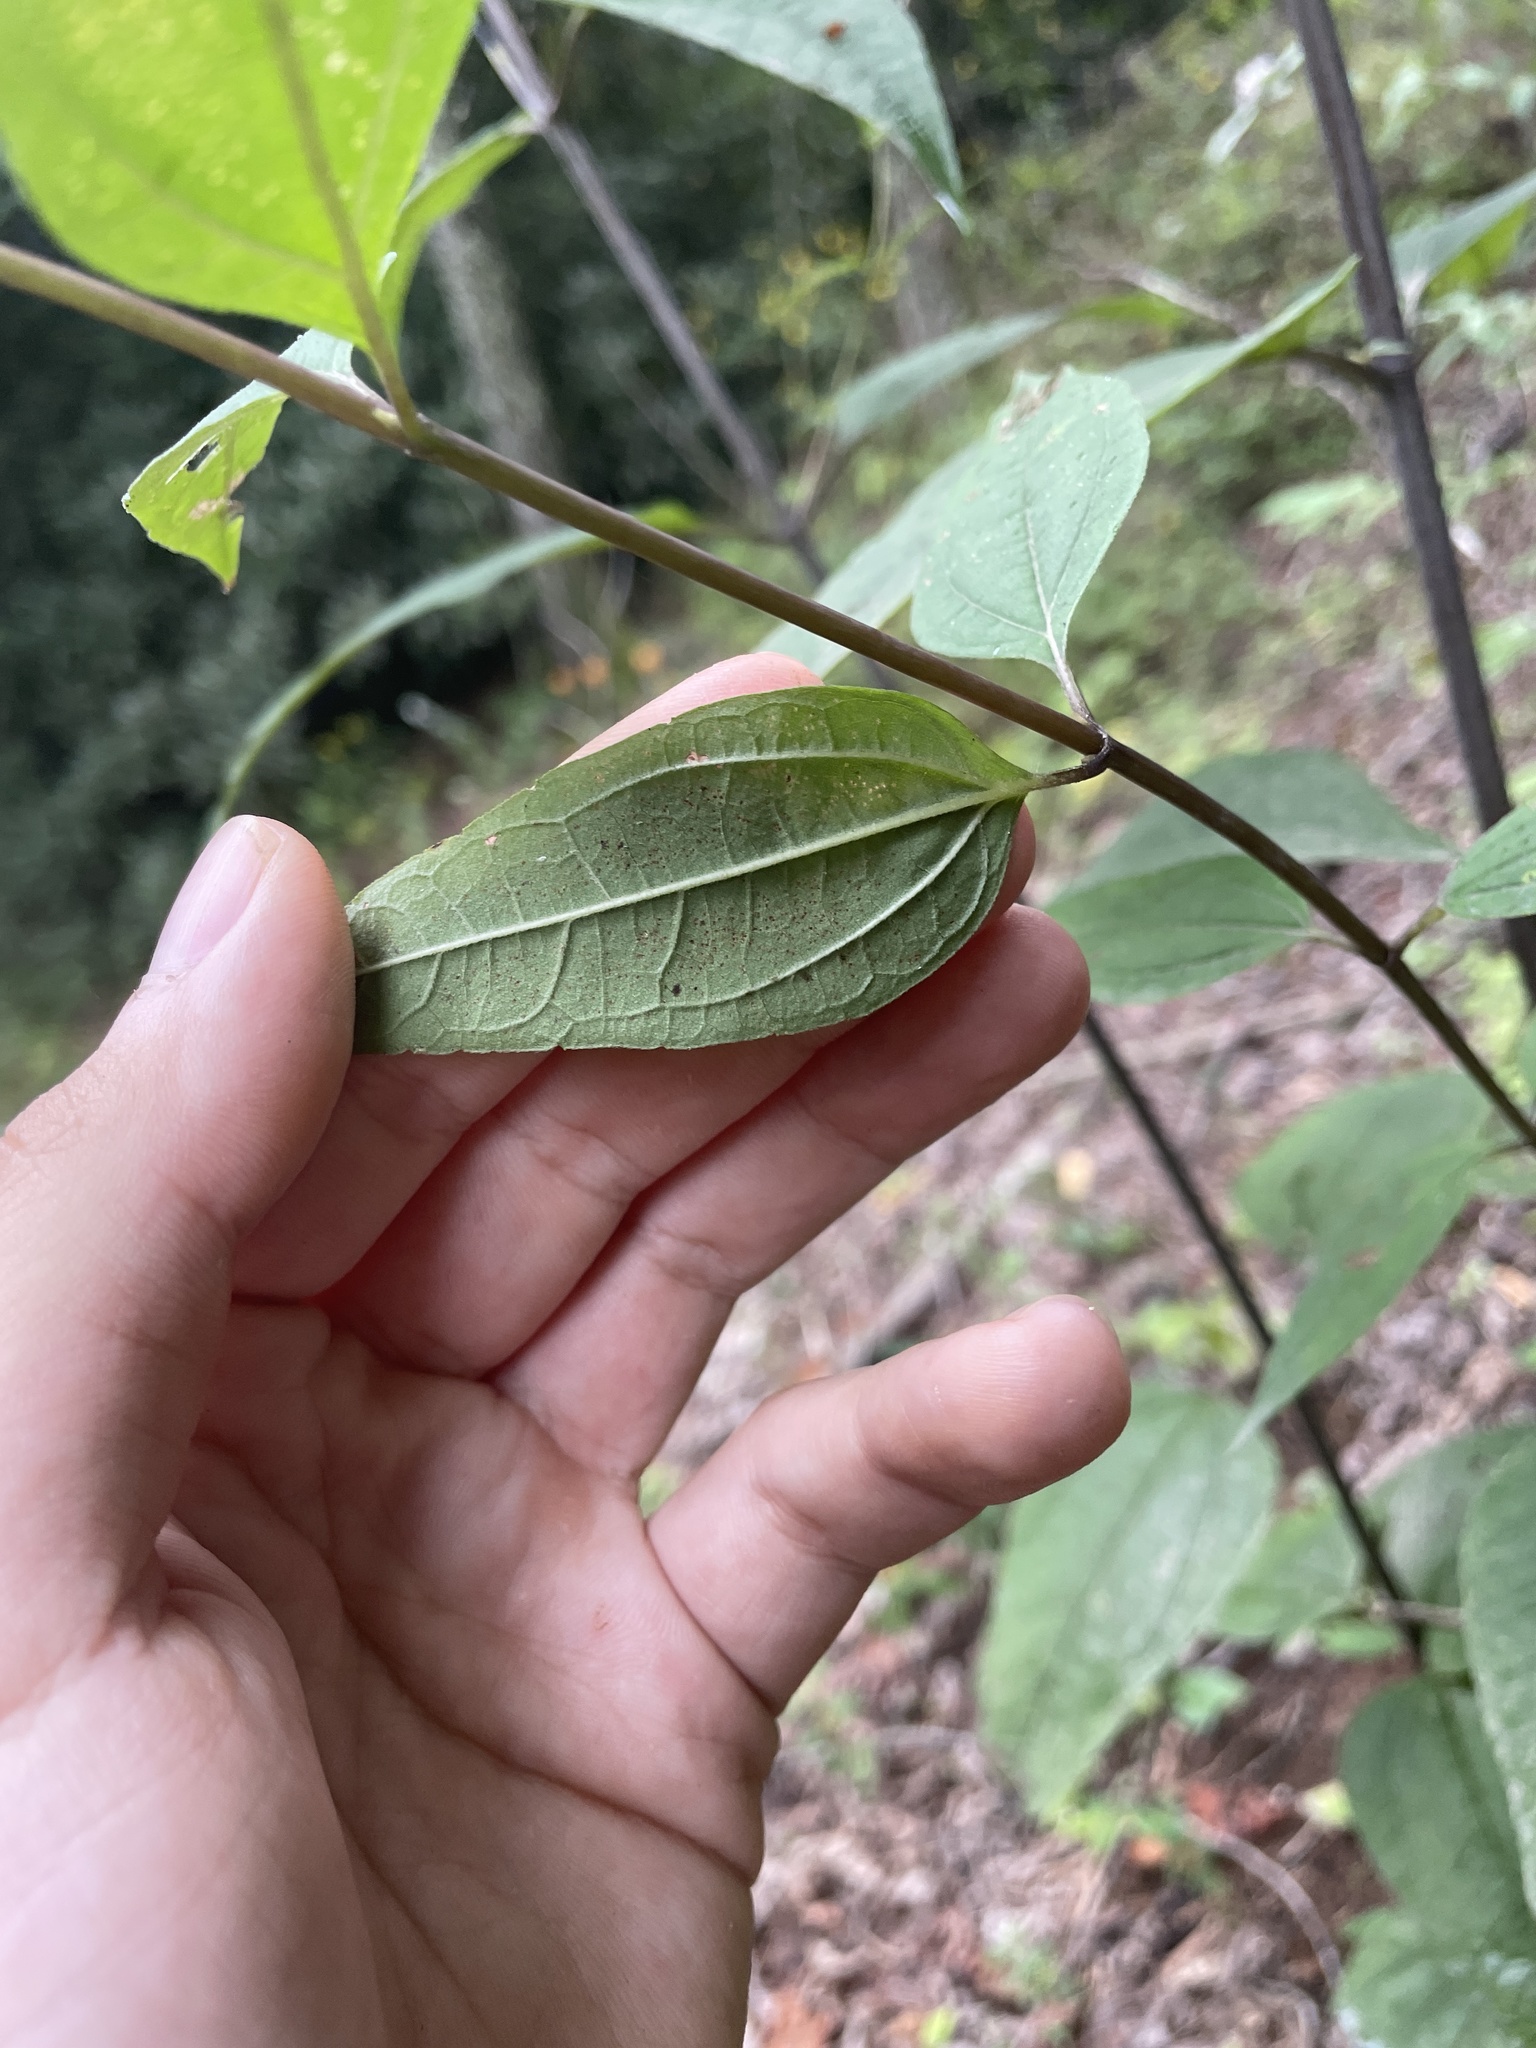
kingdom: Plantae
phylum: Tracheophyta
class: Magnoliopsida
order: Asterales
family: Asteraceae
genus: Helianthus
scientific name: Helianthus microcephalus
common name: Woodland sunflower
